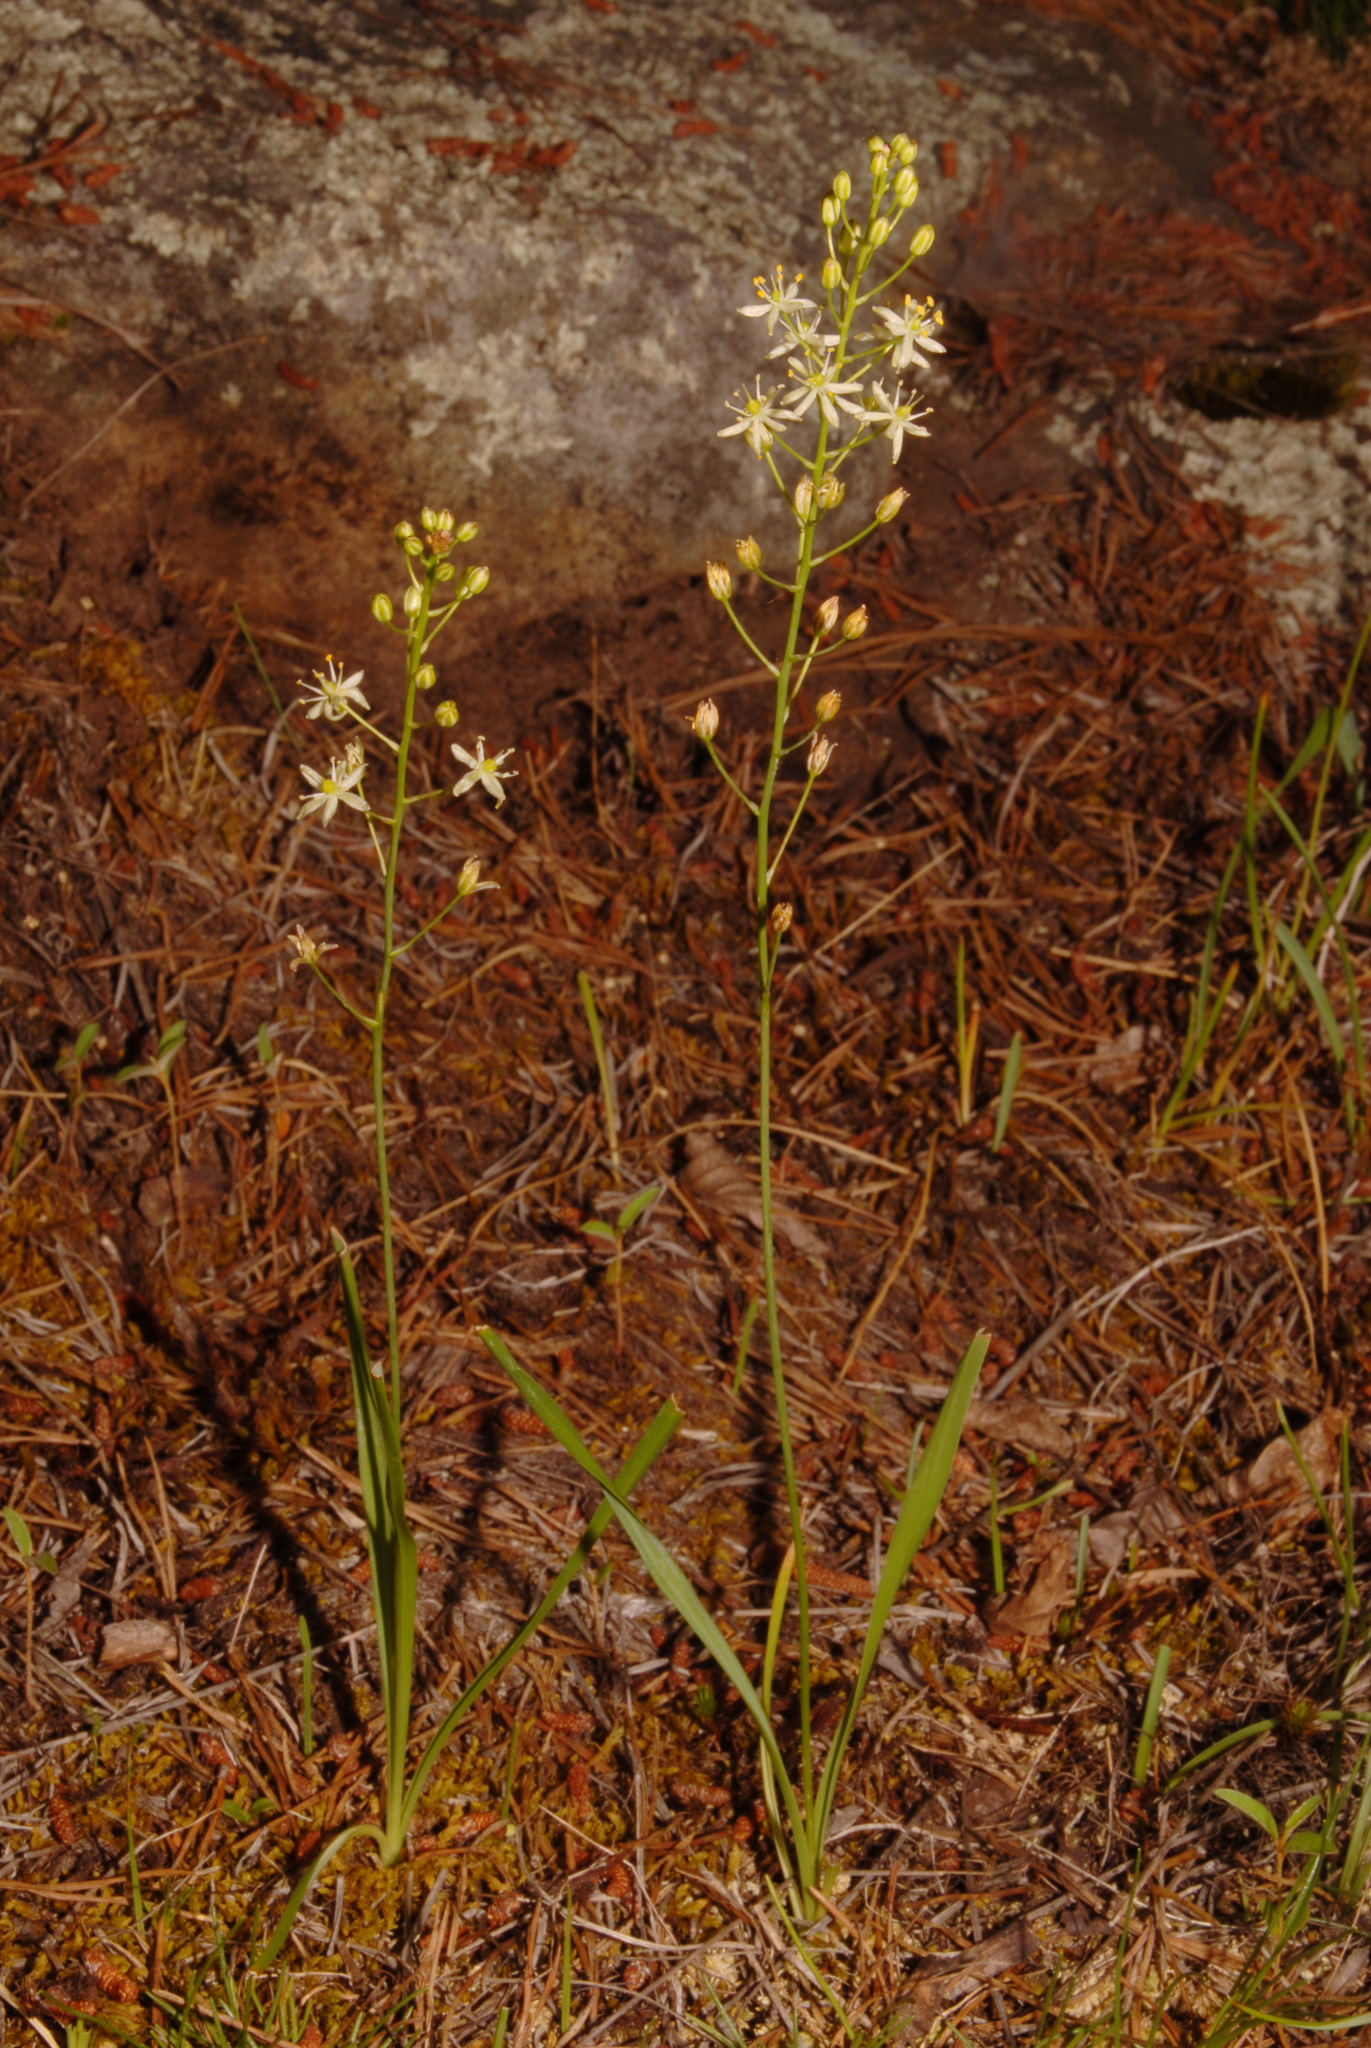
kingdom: Plantae
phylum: Tracheophyta
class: Liliopsida
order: Asparagales
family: Asparagaceae
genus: Schoenolirion
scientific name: Schoenolirion wrightii
